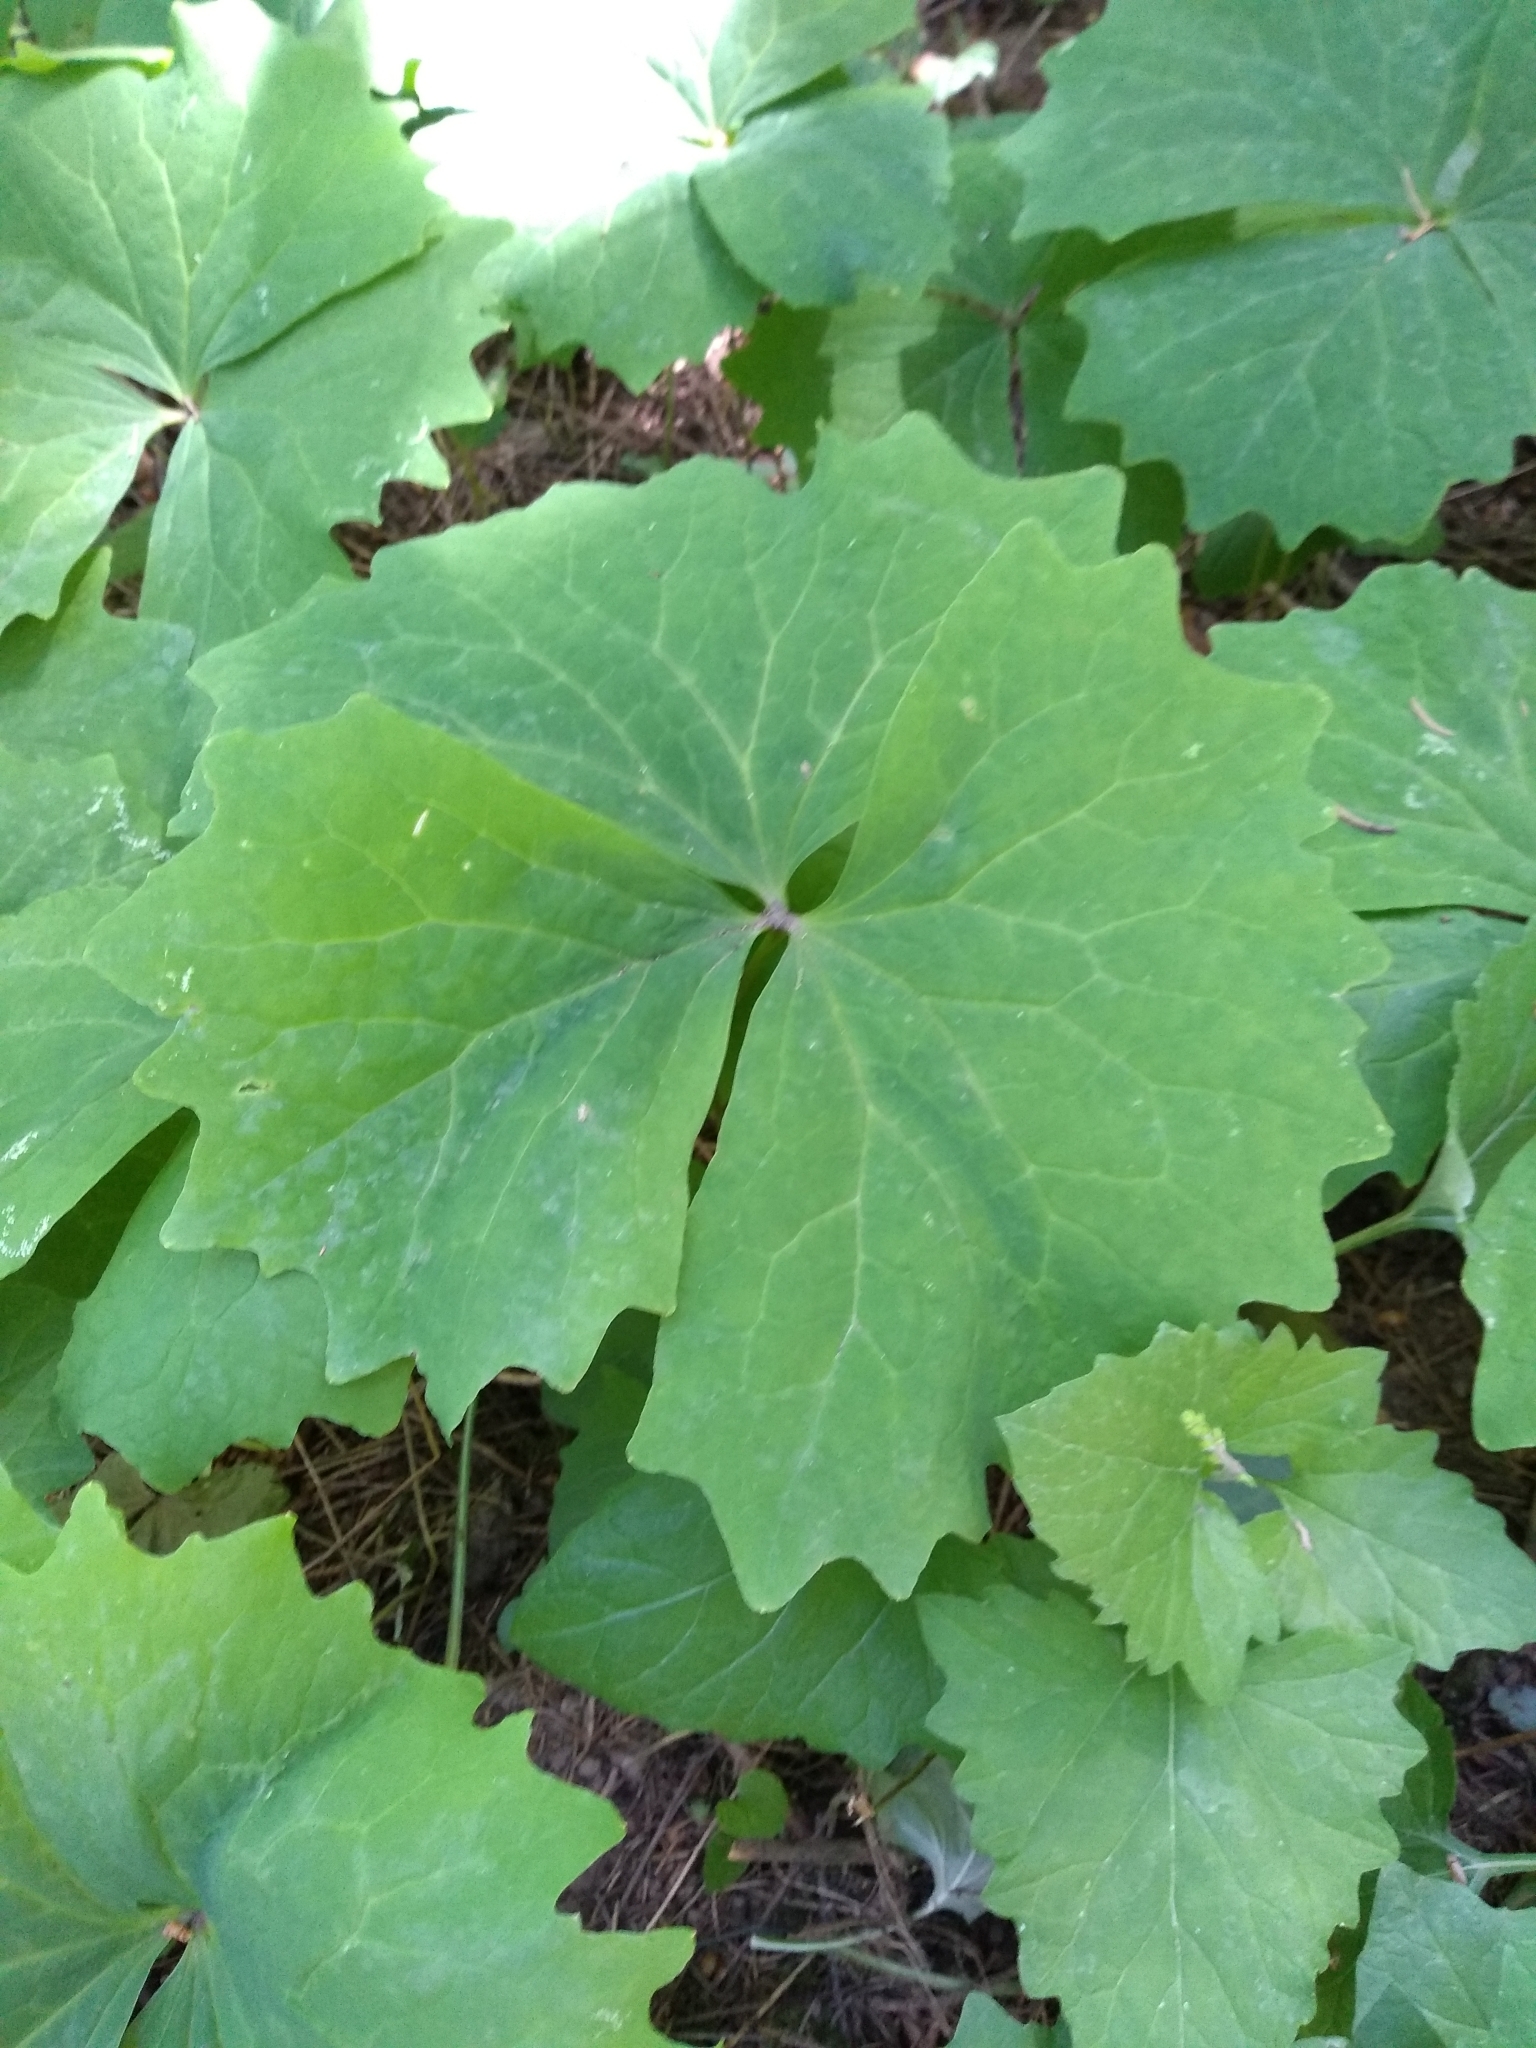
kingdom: Plantae
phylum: Tracheophyta
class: Magnoliopsida
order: Ranunculales
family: Berberidaceae
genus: Achlys
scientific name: Achlys triphylla
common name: Vanilla-leaf
